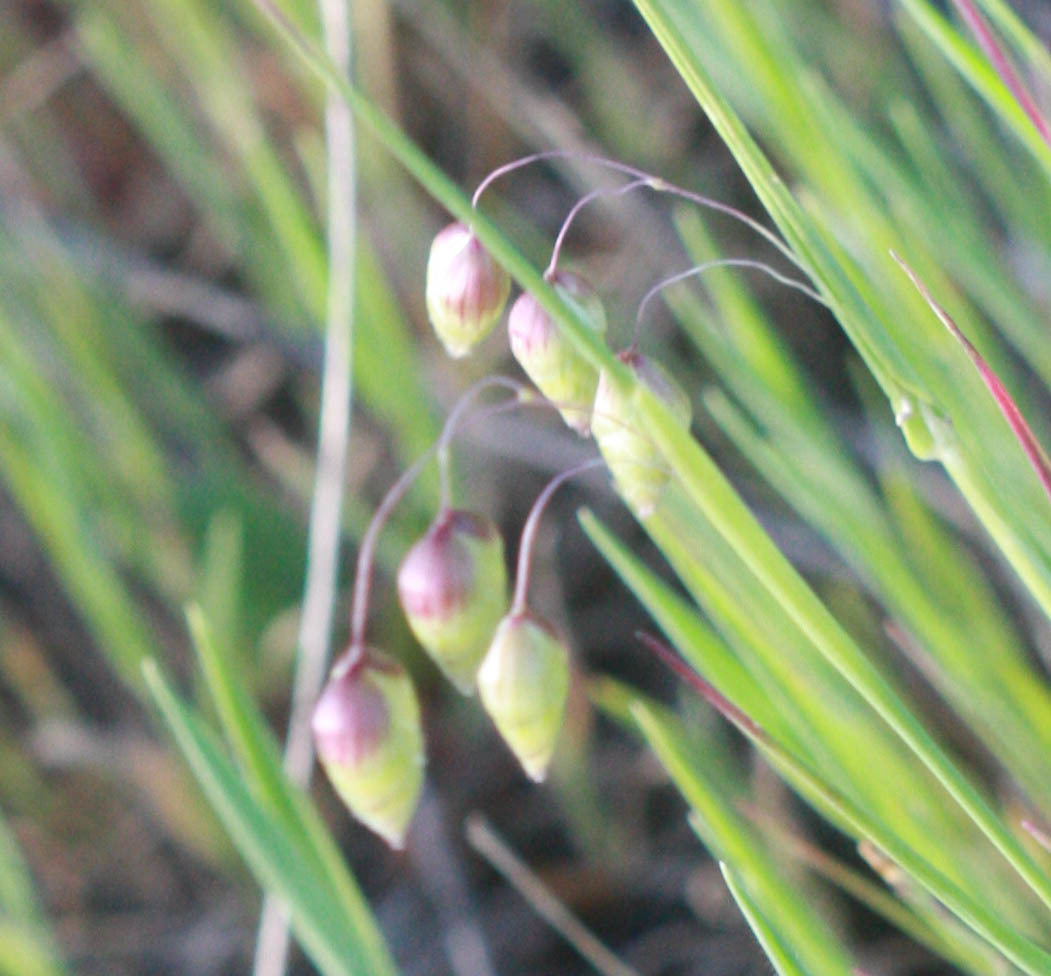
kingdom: Plantae
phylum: Tracheophyta
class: Liliopsida
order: Poales
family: Poaceae
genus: Briza
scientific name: Briza maxima
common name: Big quakinggrass
